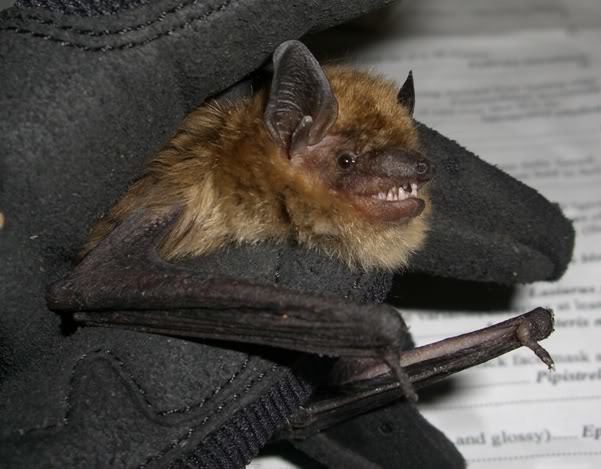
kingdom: Animalia
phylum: Chordata
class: Mammalia
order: Chiroptera
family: Vespertilionidae
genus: Eptesicus
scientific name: Eptesicus fuscus
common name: Big brown bat
